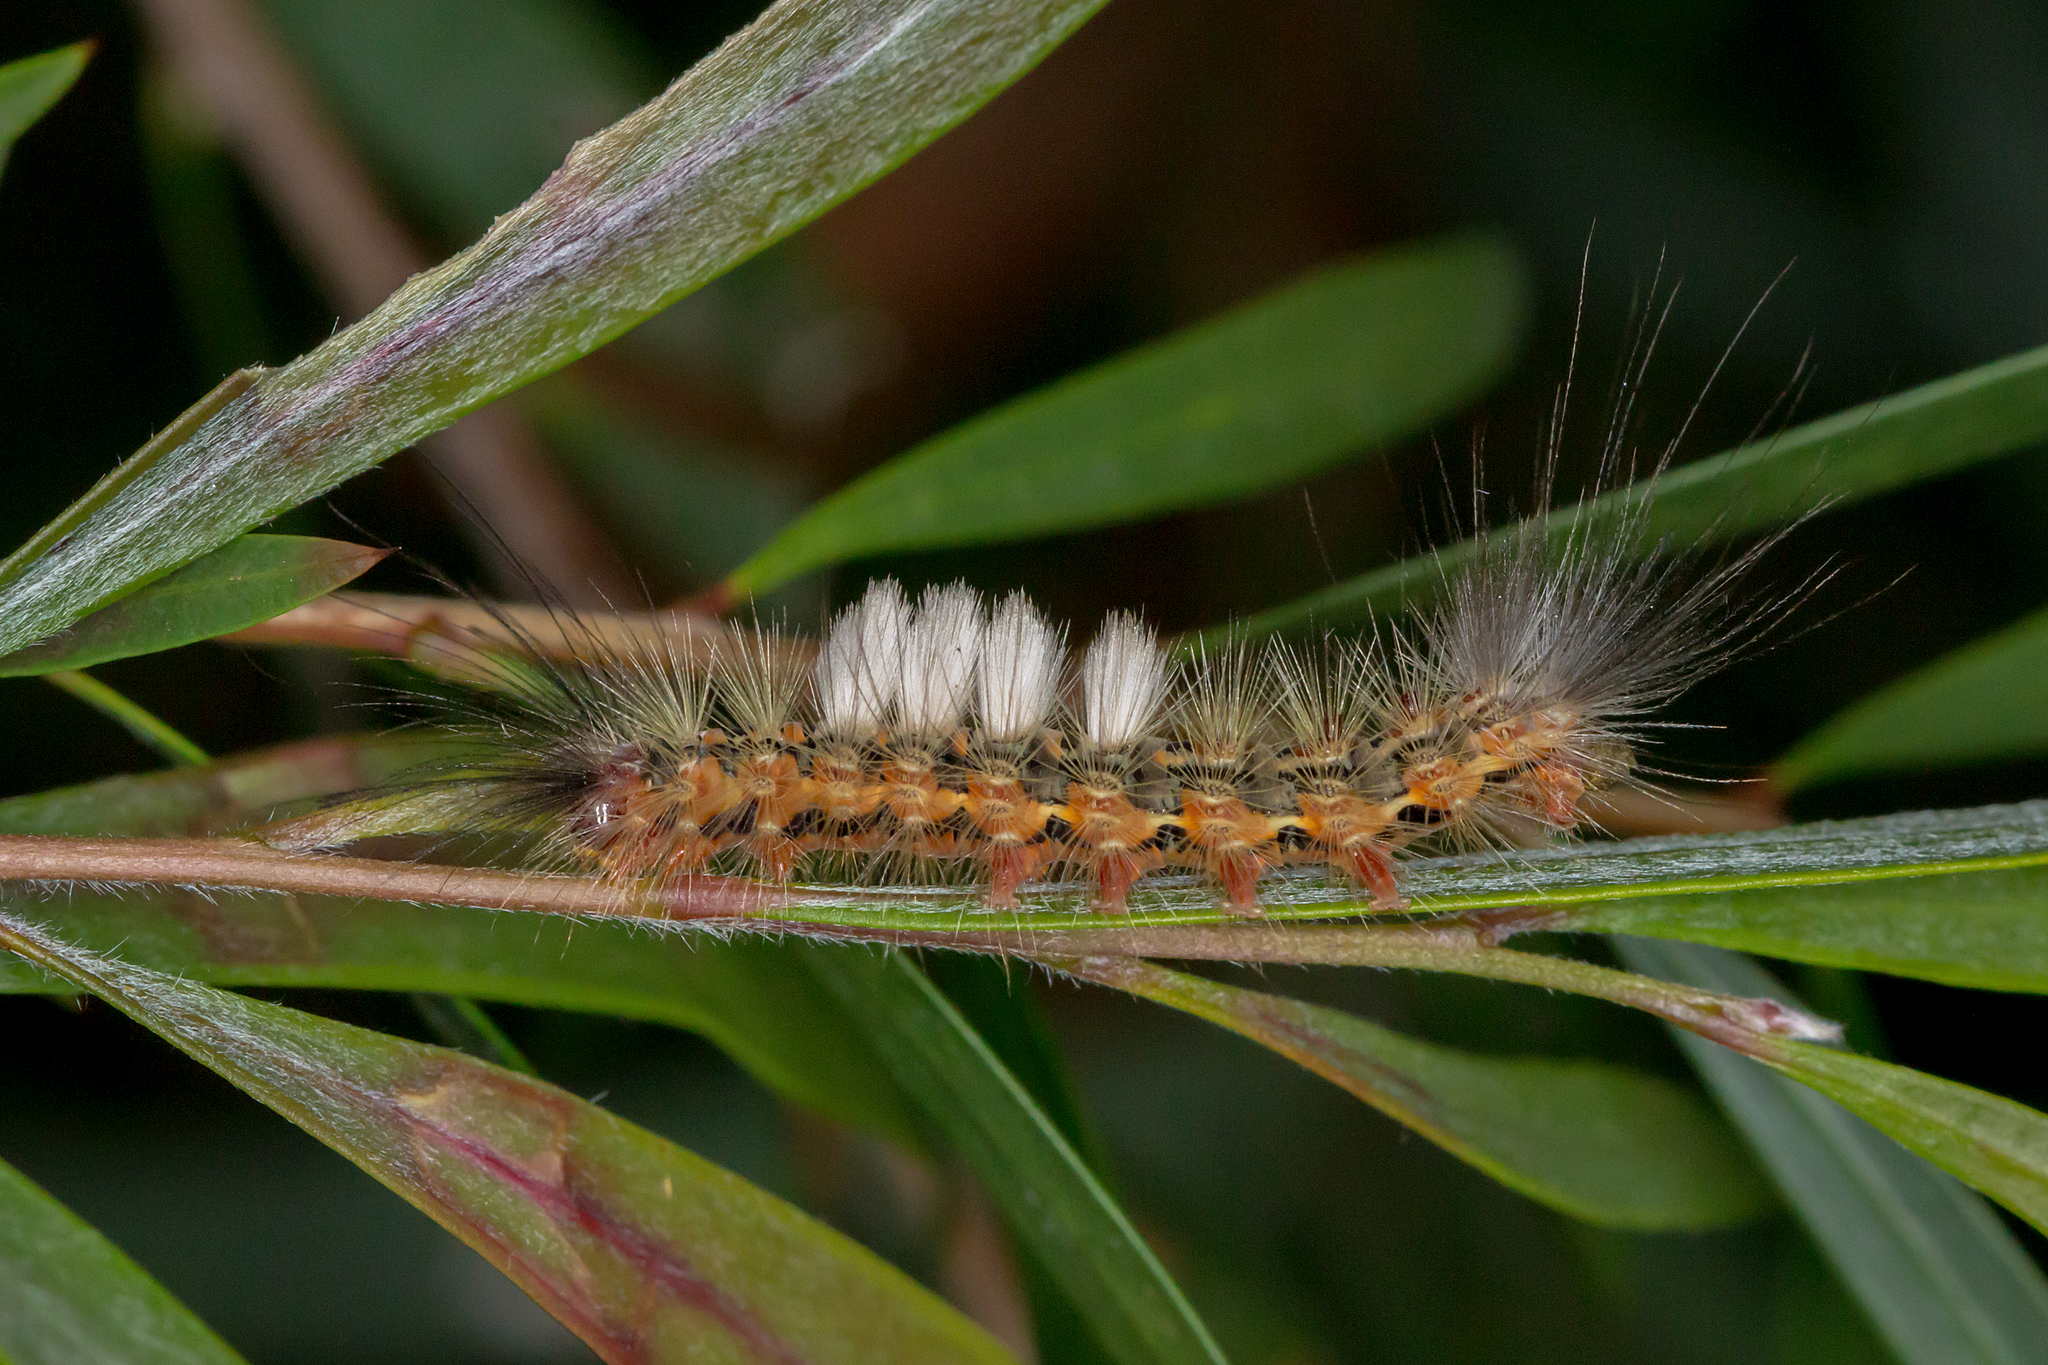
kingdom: Animalia
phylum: Arthropoda
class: Insecta
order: Lepidoptera
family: Erebidae
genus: Orgyia
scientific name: Orgyia
